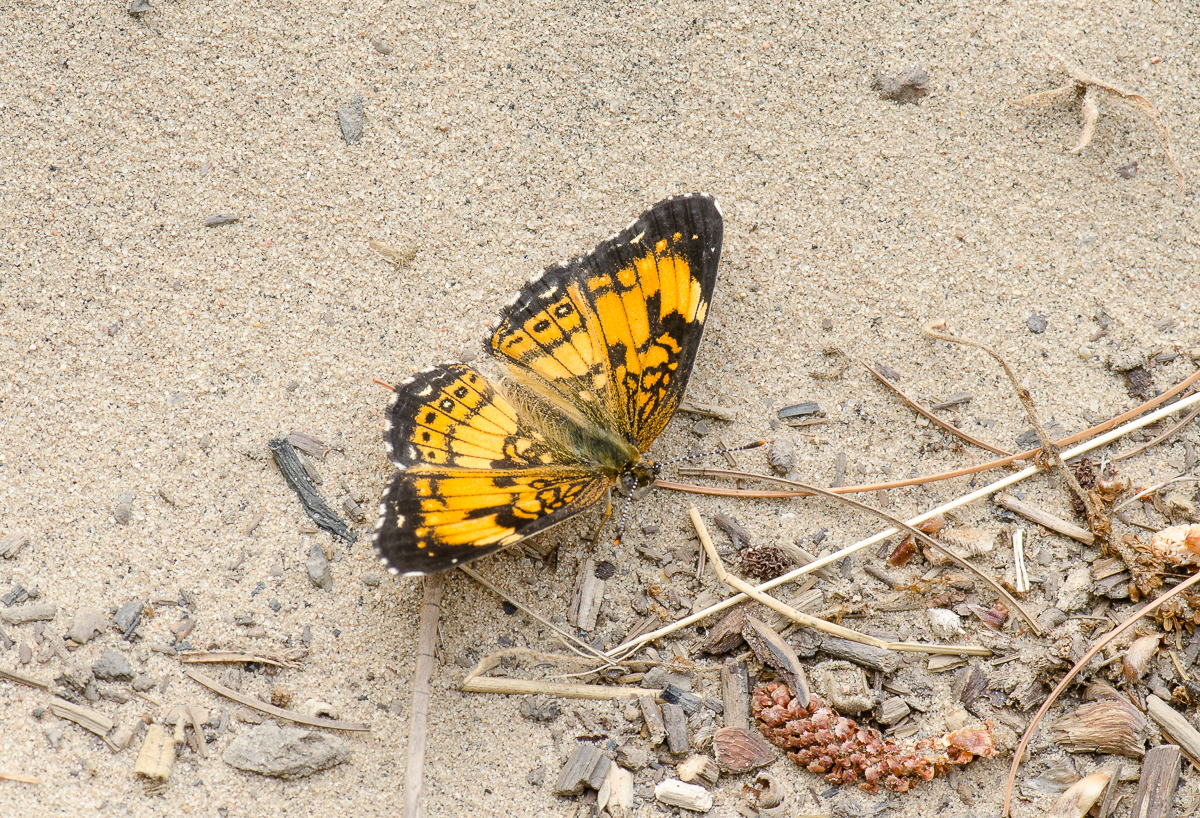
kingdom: Animalia
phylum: Arthropoda
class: Insecta
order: Lepidoptera
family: Nymphalidae
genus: Chlosyne
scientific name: Chlosyne nycteis
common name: Silvery checkerspot
